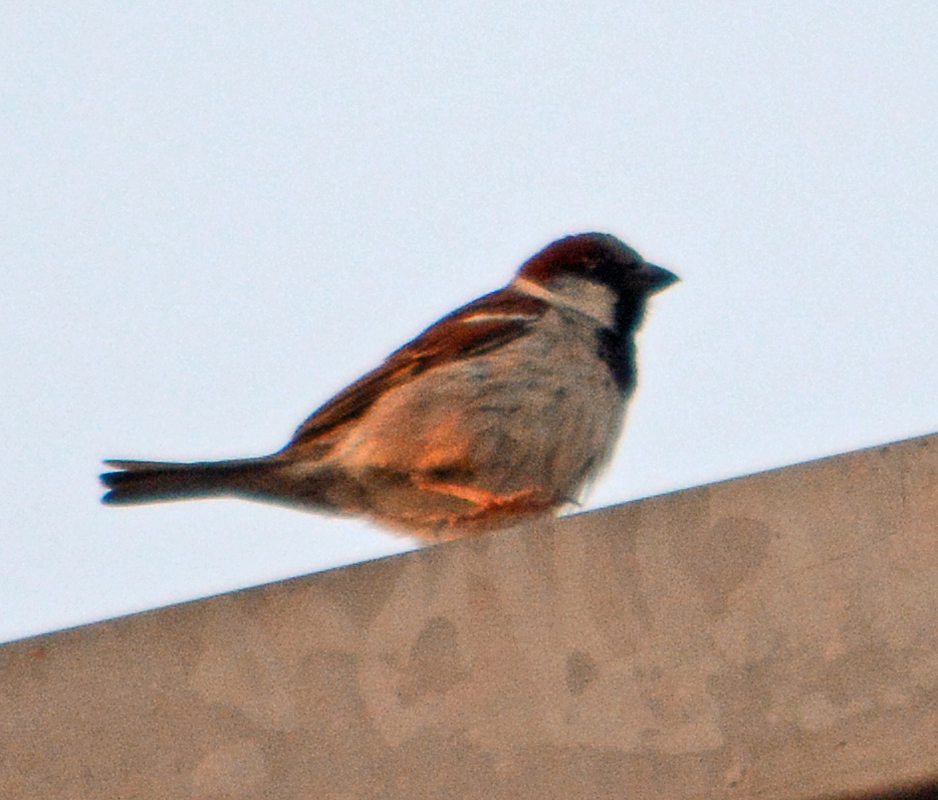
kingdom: Animalia
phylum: Chordata
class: Aves
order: Passeriformes
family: Passeridae
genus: Passer
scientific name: Passer domesticus
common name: House sparrow
